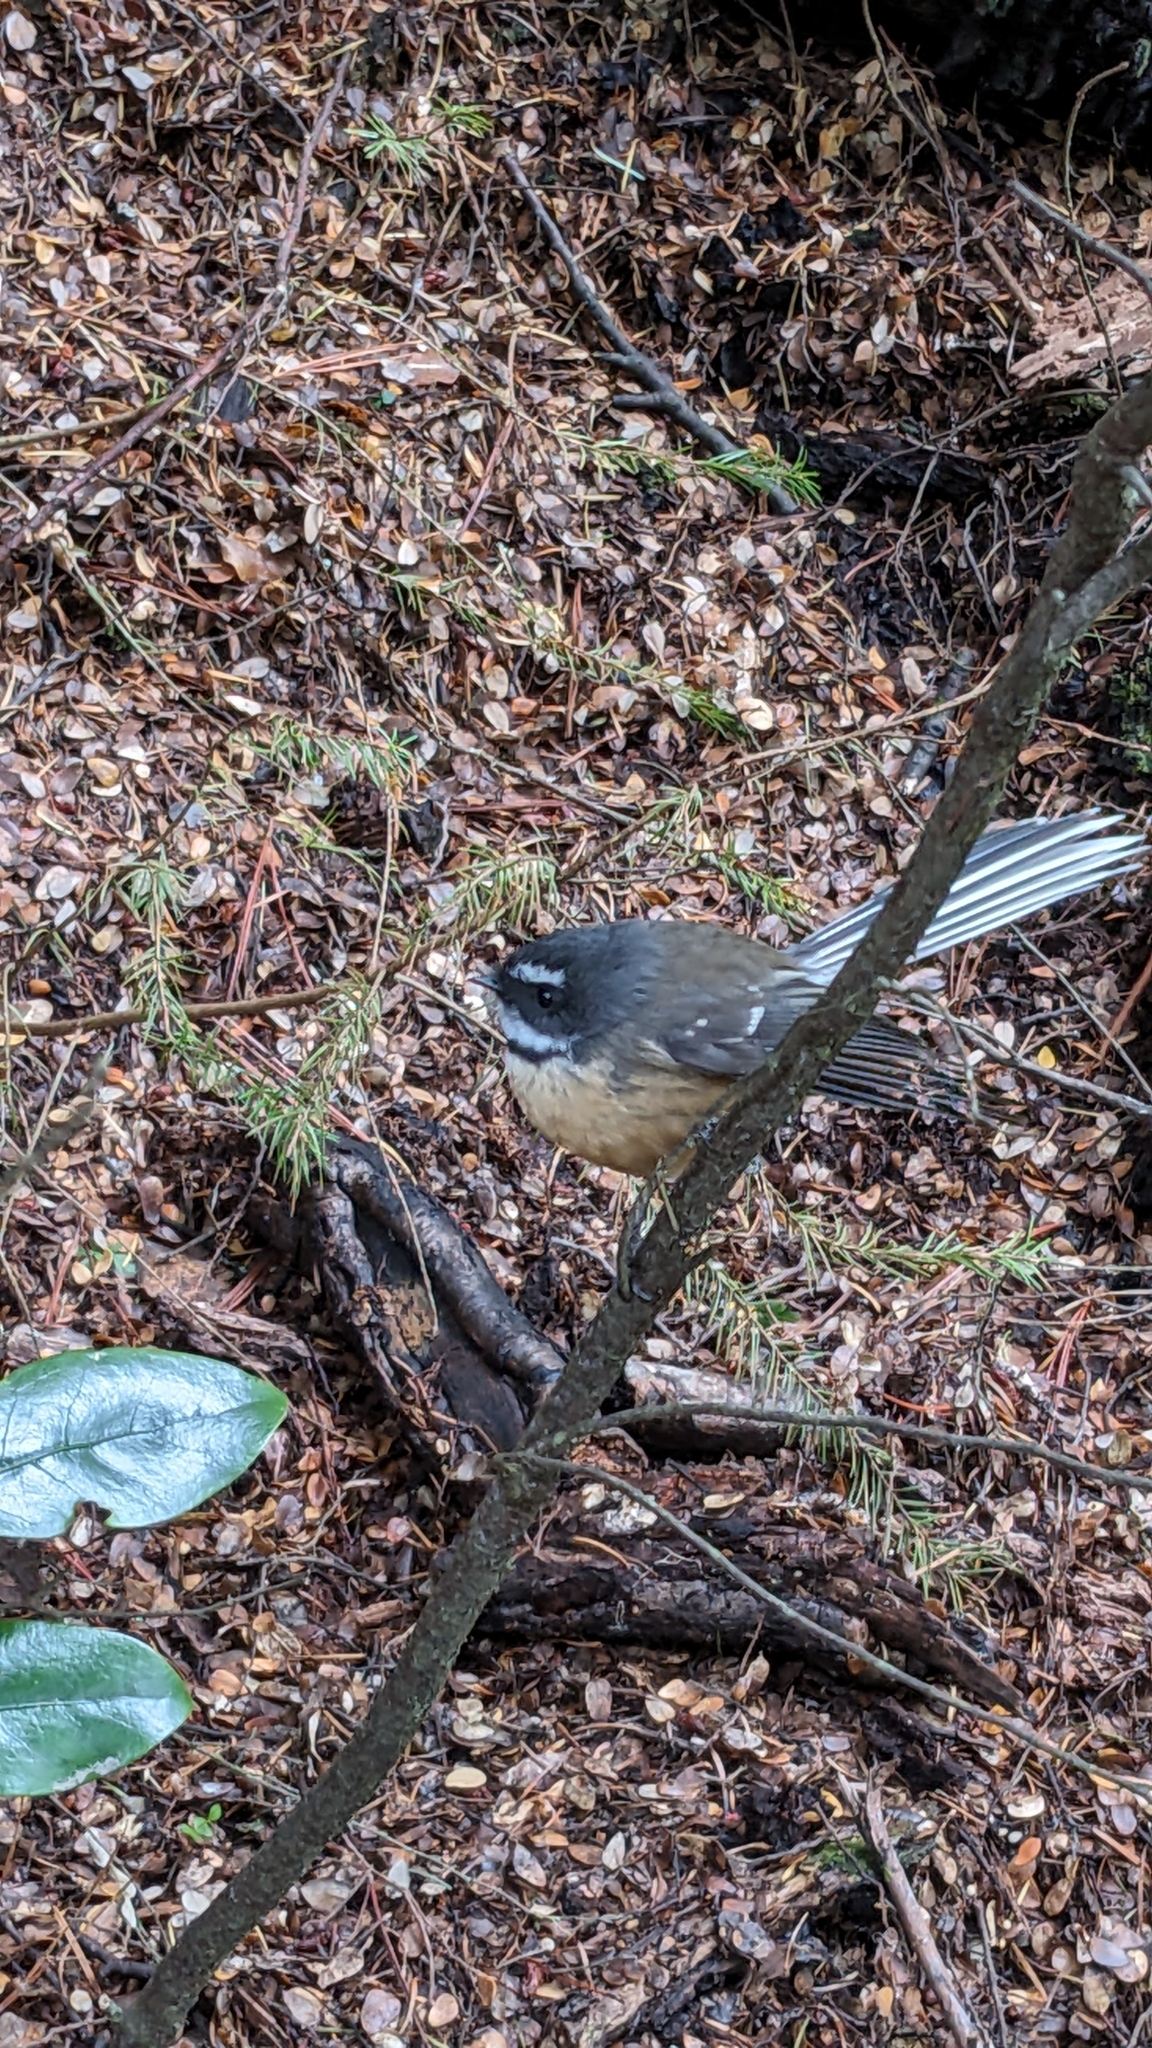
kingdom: Animalia
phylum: Chordata
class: Aves
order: Passeriformes
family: Rhipiduridae
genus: Rhipidura
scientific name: Rhipidura fuliginosa
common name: New zealand fantail
